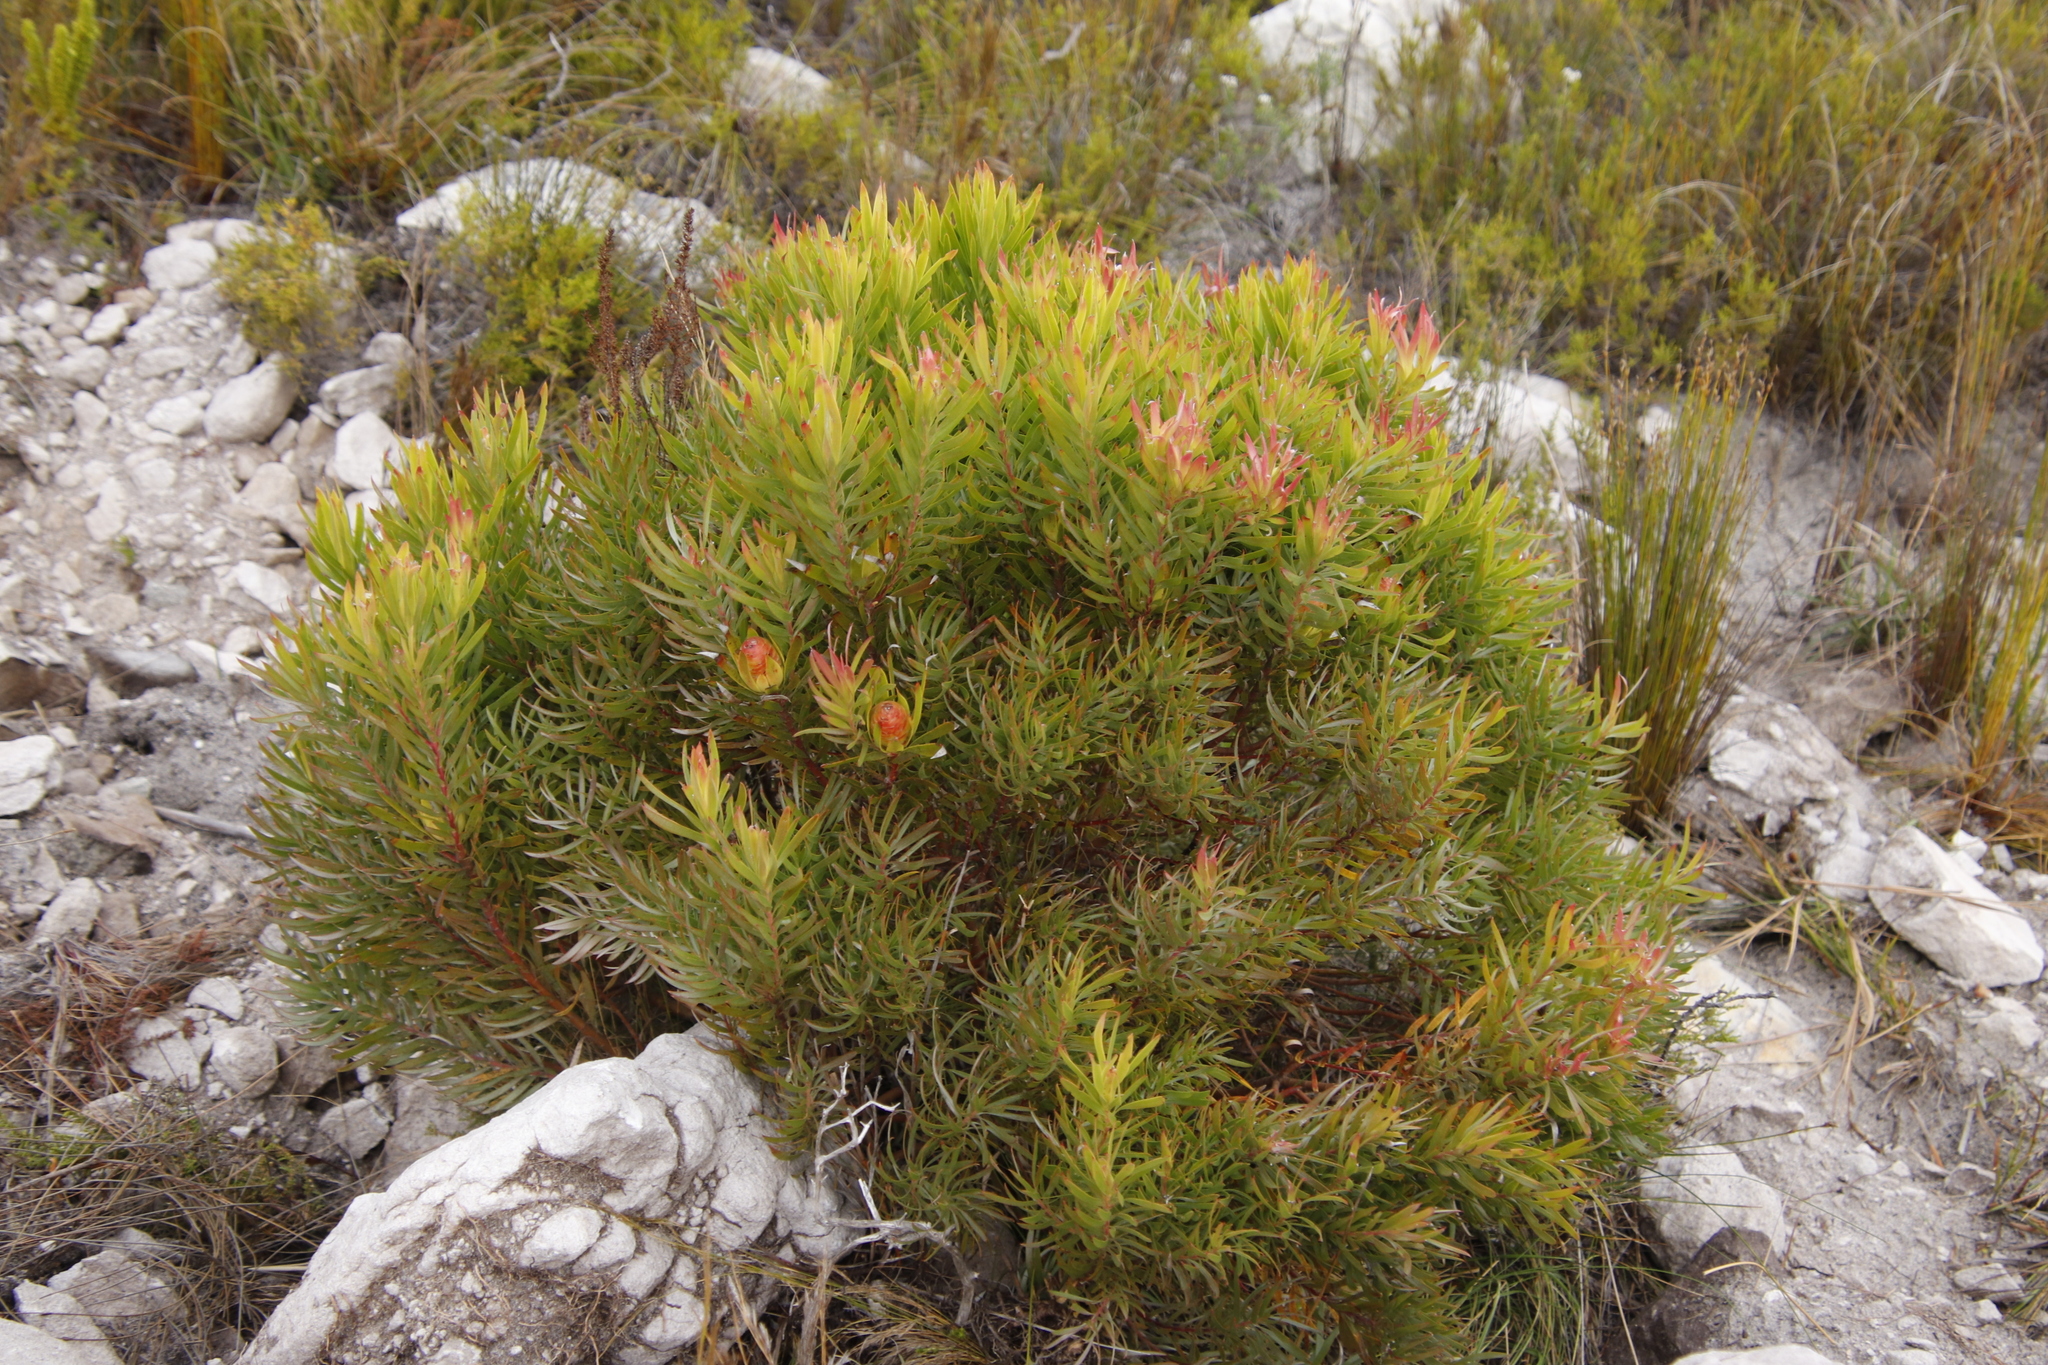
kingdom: Plantae
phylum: Tracheophyta
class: Magnoliopsida
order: Proteales
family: Proteaceae
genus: Leucadendron
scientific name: Leucadendron xanthoconus
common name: Sickle-leaf conebush
